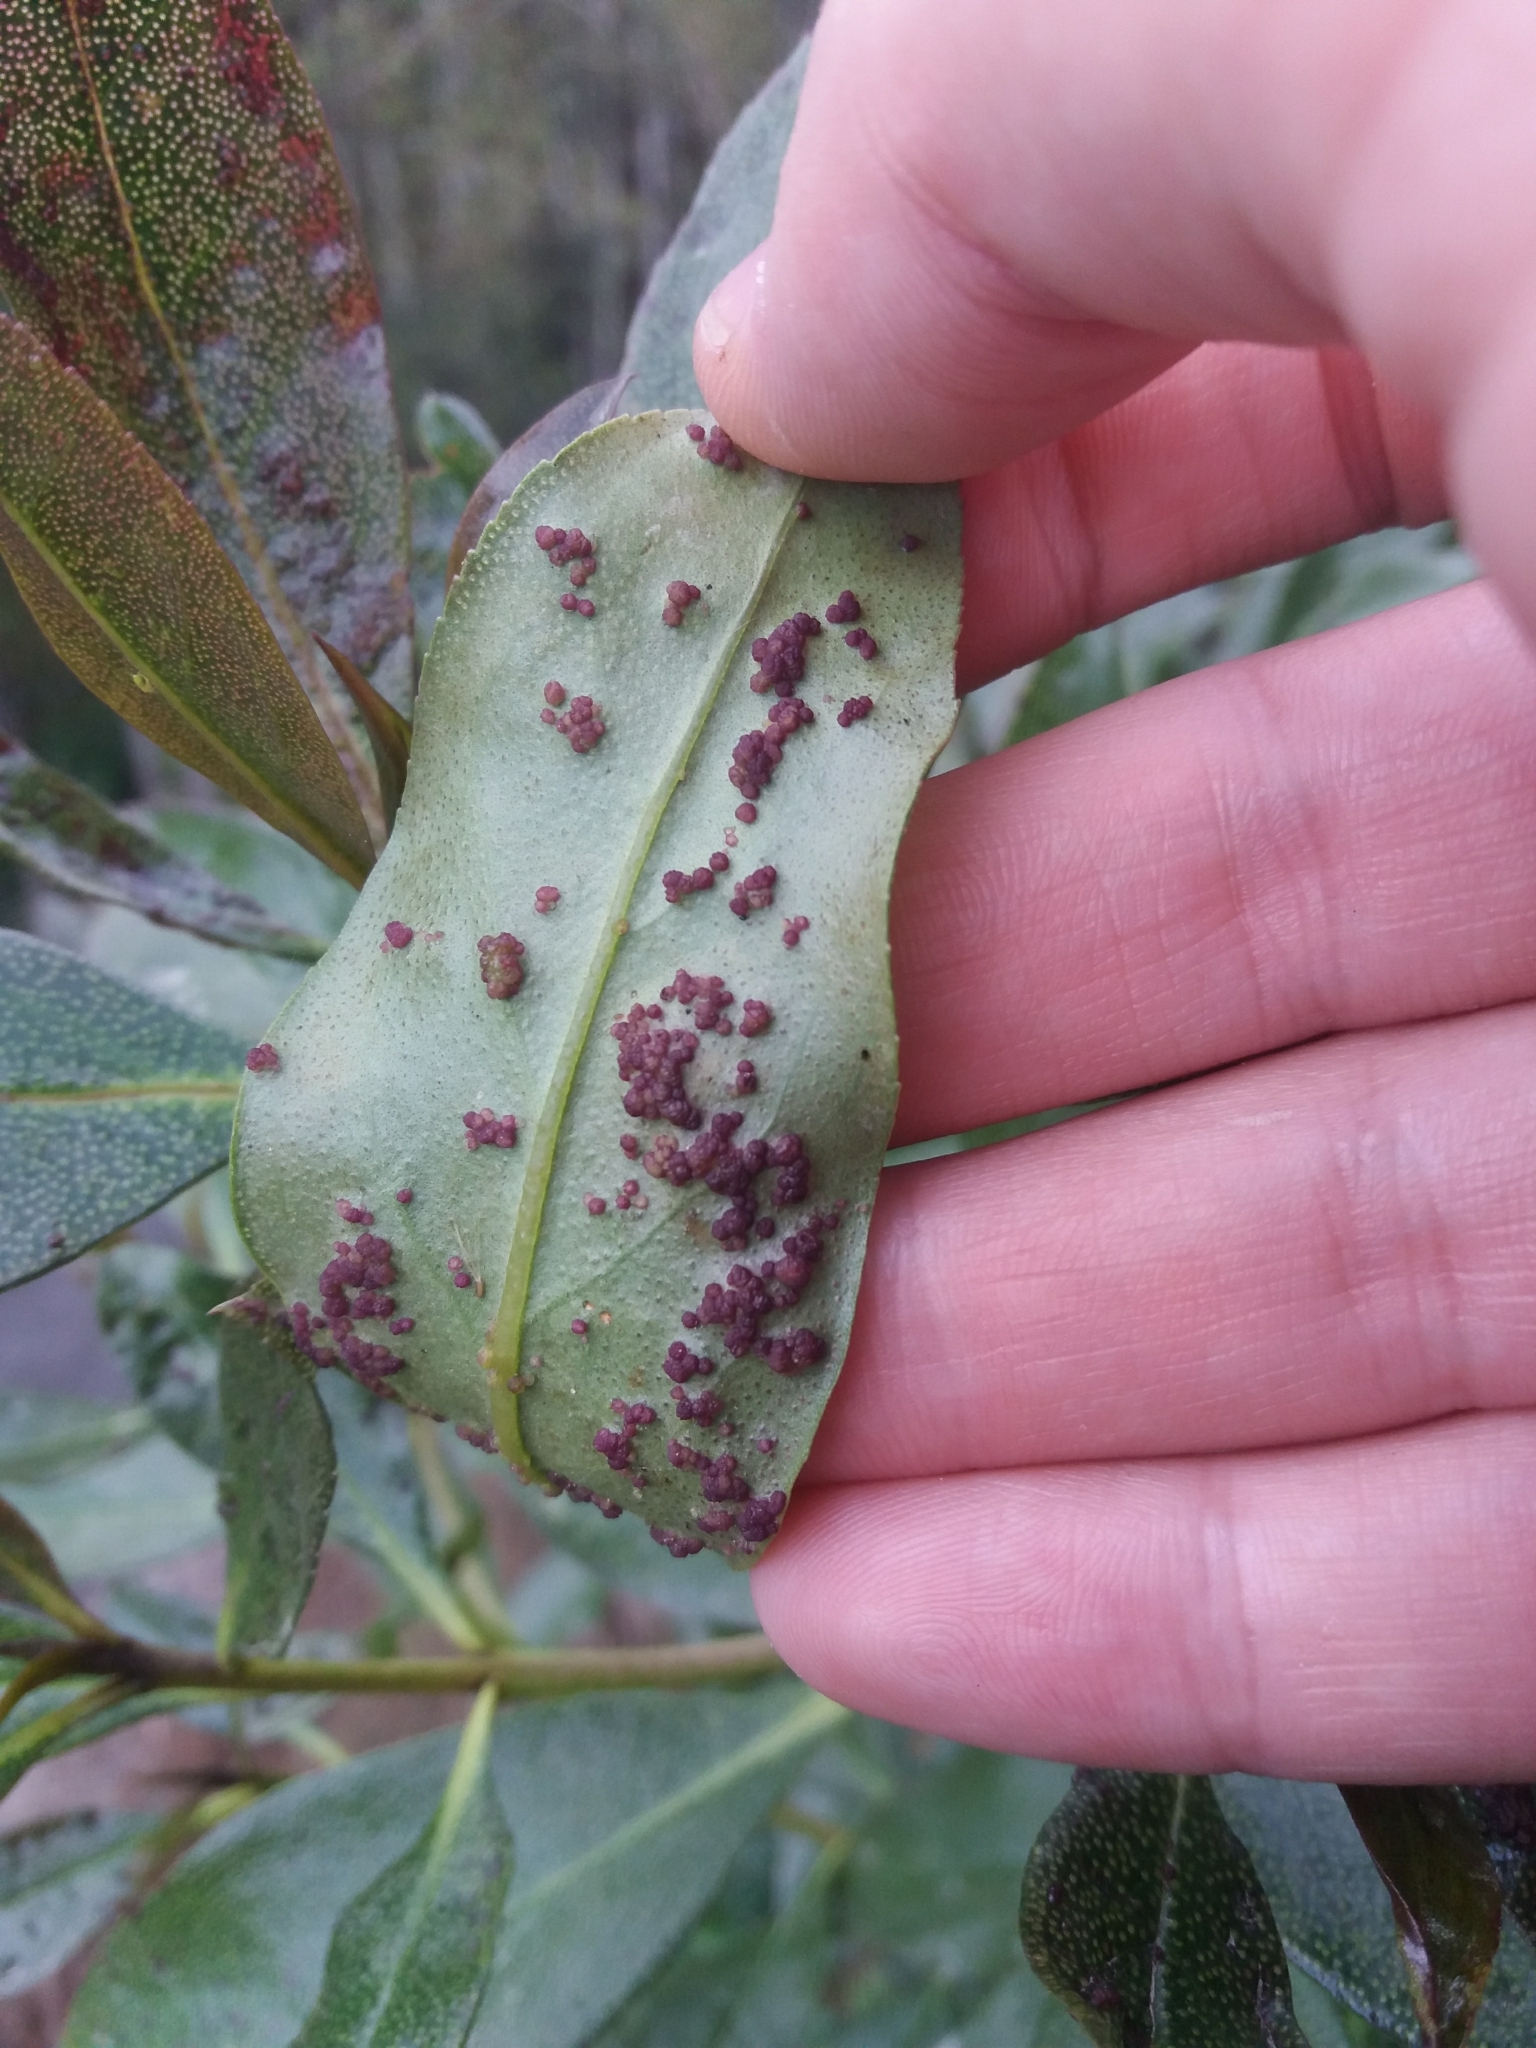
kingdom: Animalia
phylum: Arthropoda
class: Arachnida
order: Trombidiformes
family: Eriophyidae
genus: Aceria
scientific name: Aceria healyi
